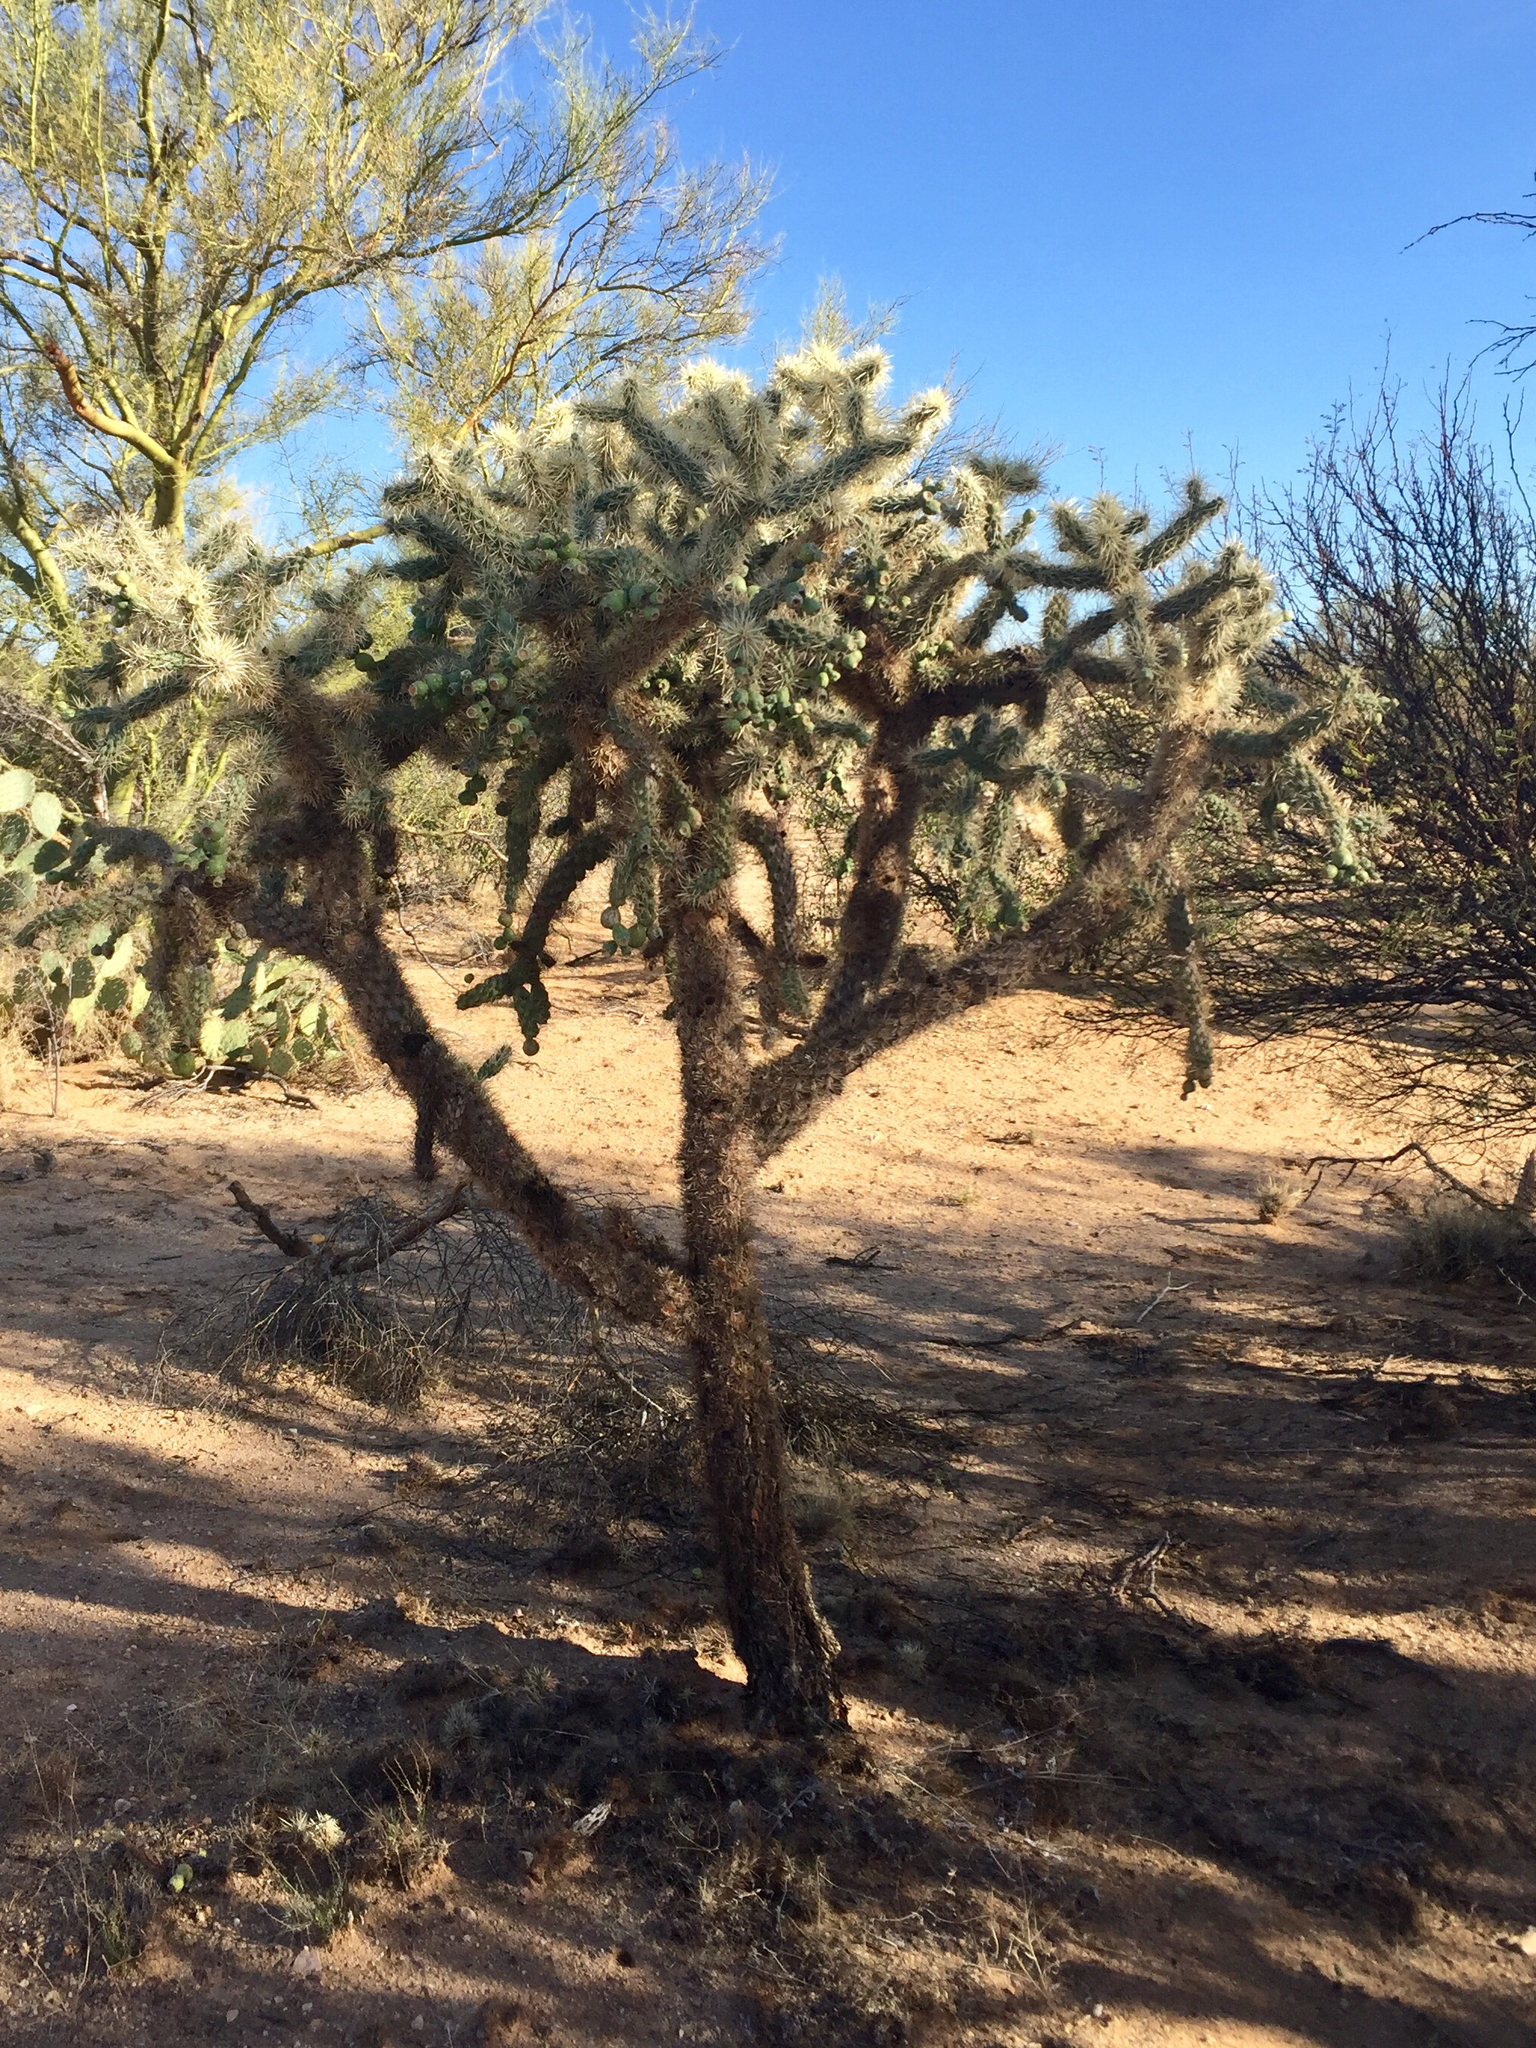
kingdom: Plantae
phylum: Tracheophyta
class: Magnoliopsida
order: Caryophyllales
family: Cactaceae
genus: Cylindropuntia
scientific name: Cylindropuntia fulgida
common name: Jumping cholla
